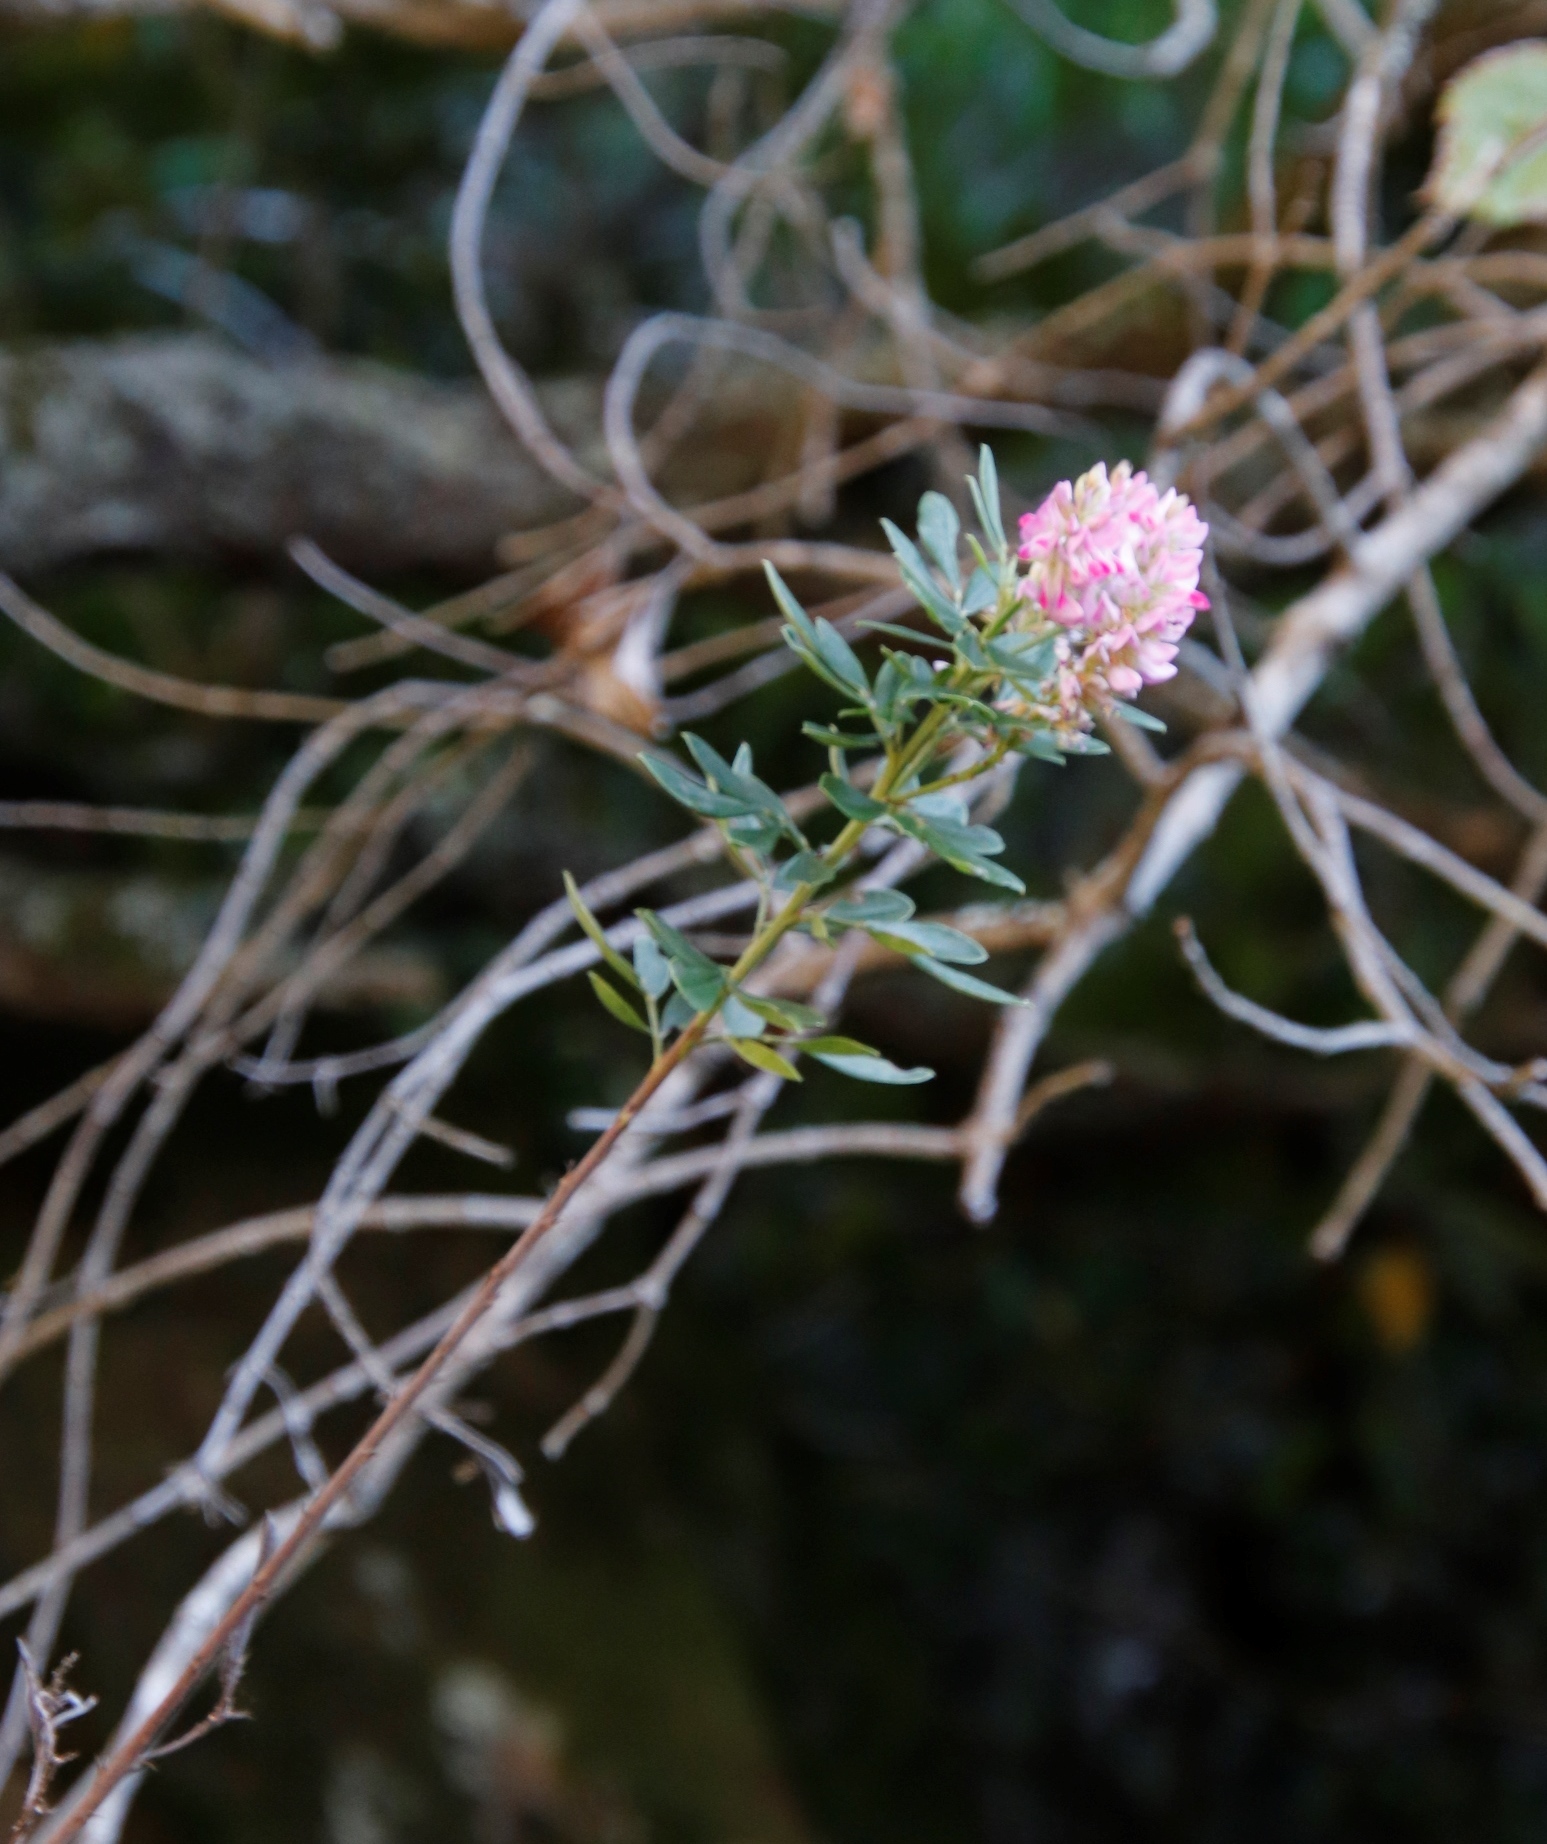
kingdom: Plantae
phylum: Tracheophyta
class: Magnoliopsida
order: Fabales
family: Fabaceae
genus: Indigofera
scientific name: Indigofera cytisoides
